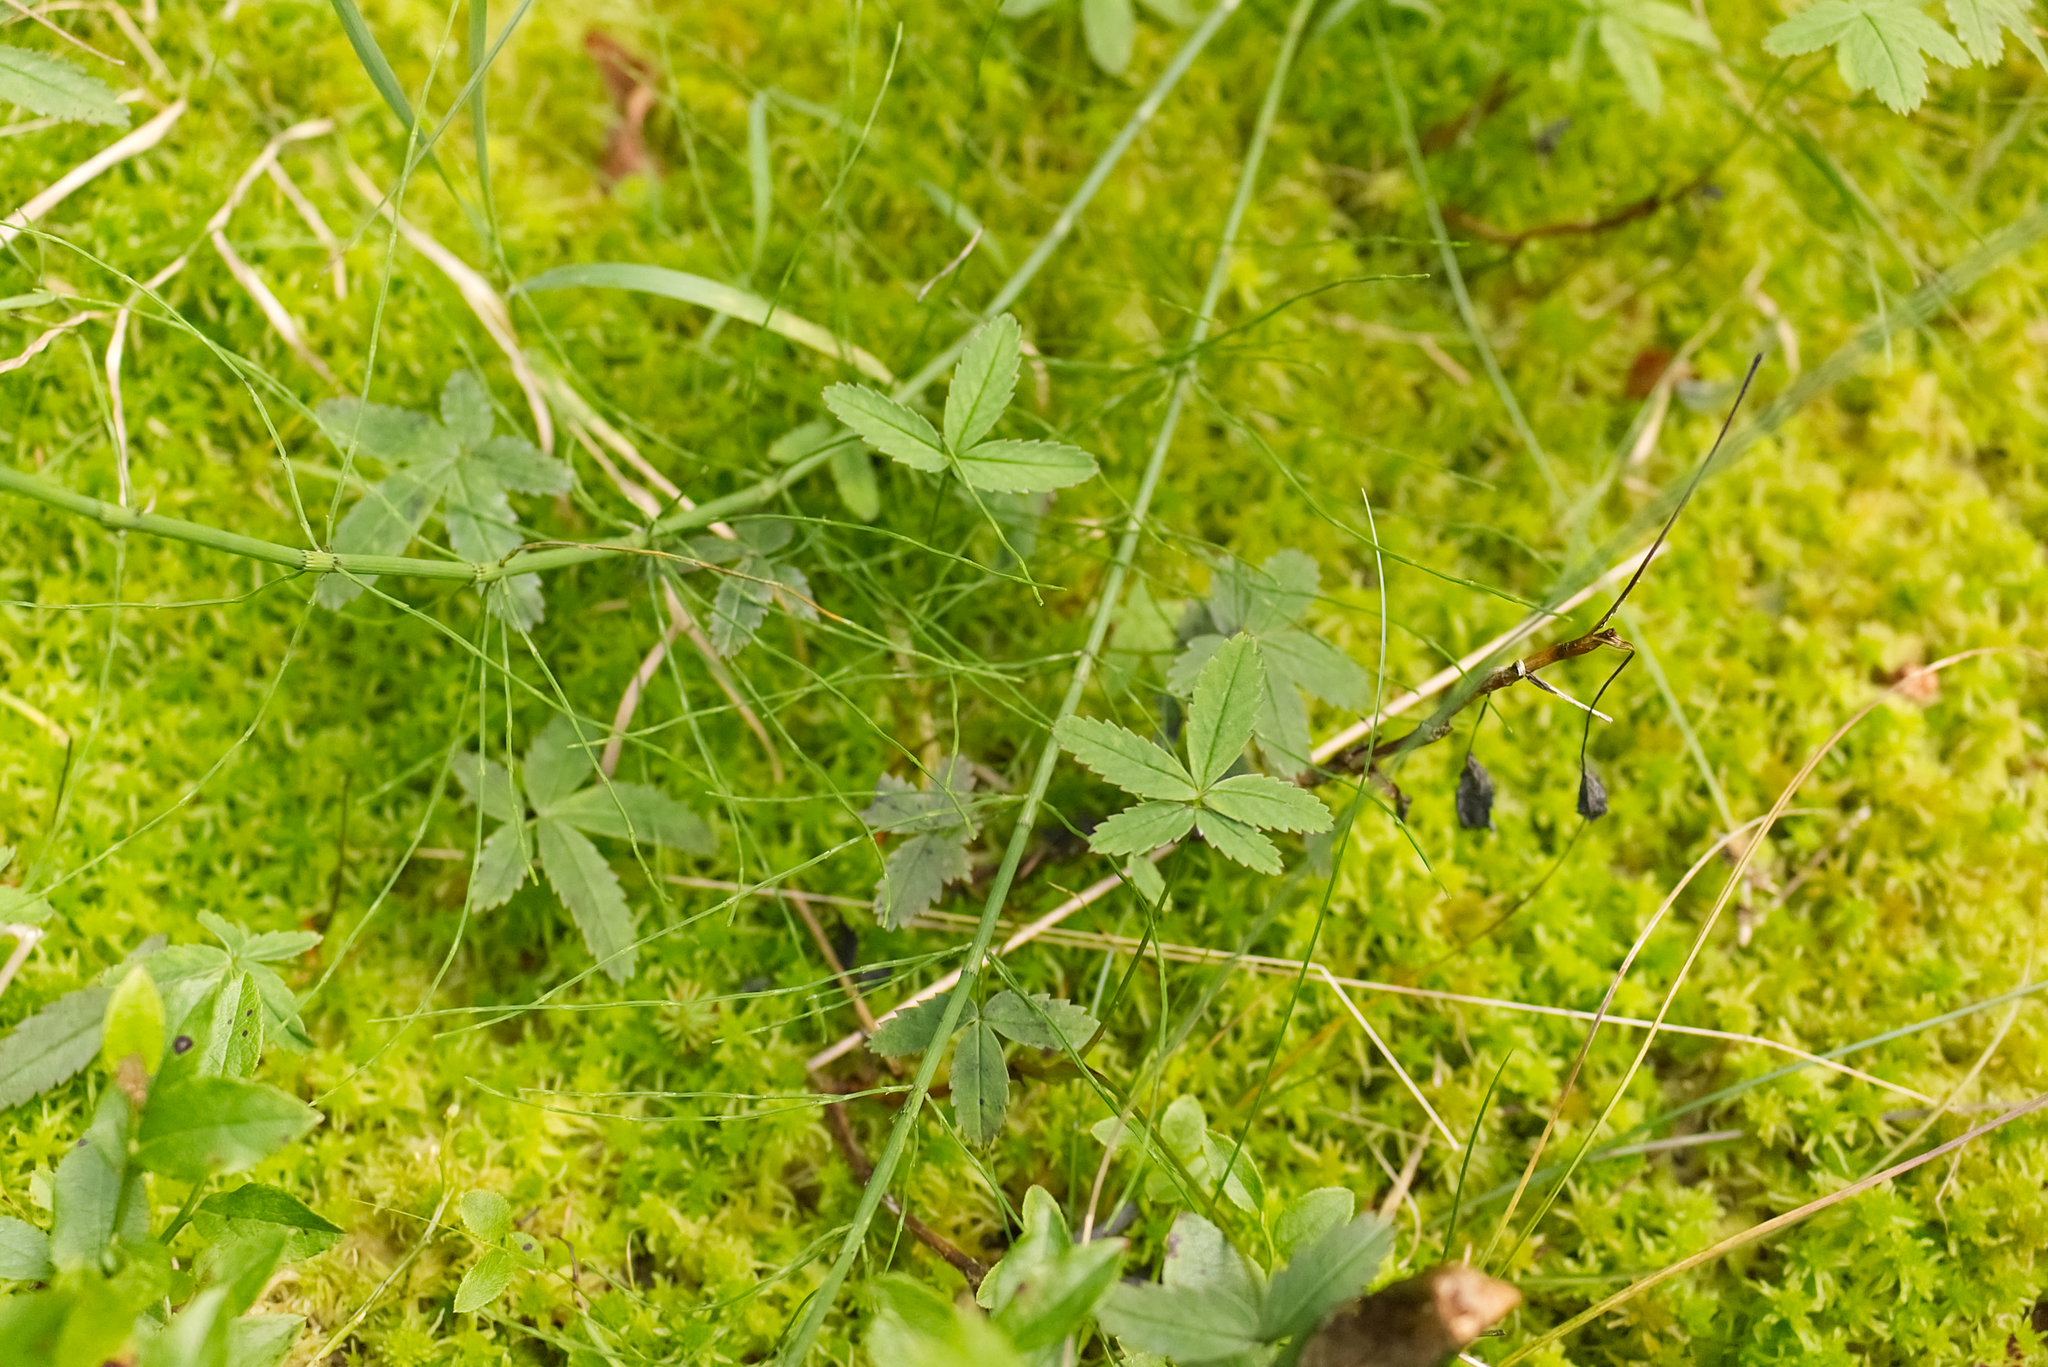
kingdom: Plantae
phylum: Tracheophyta
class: Magnoliopsida
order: Rosales
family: Rosaceae
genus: Comarum
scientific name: Comarum palustre
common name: Marsh cinquefoil
